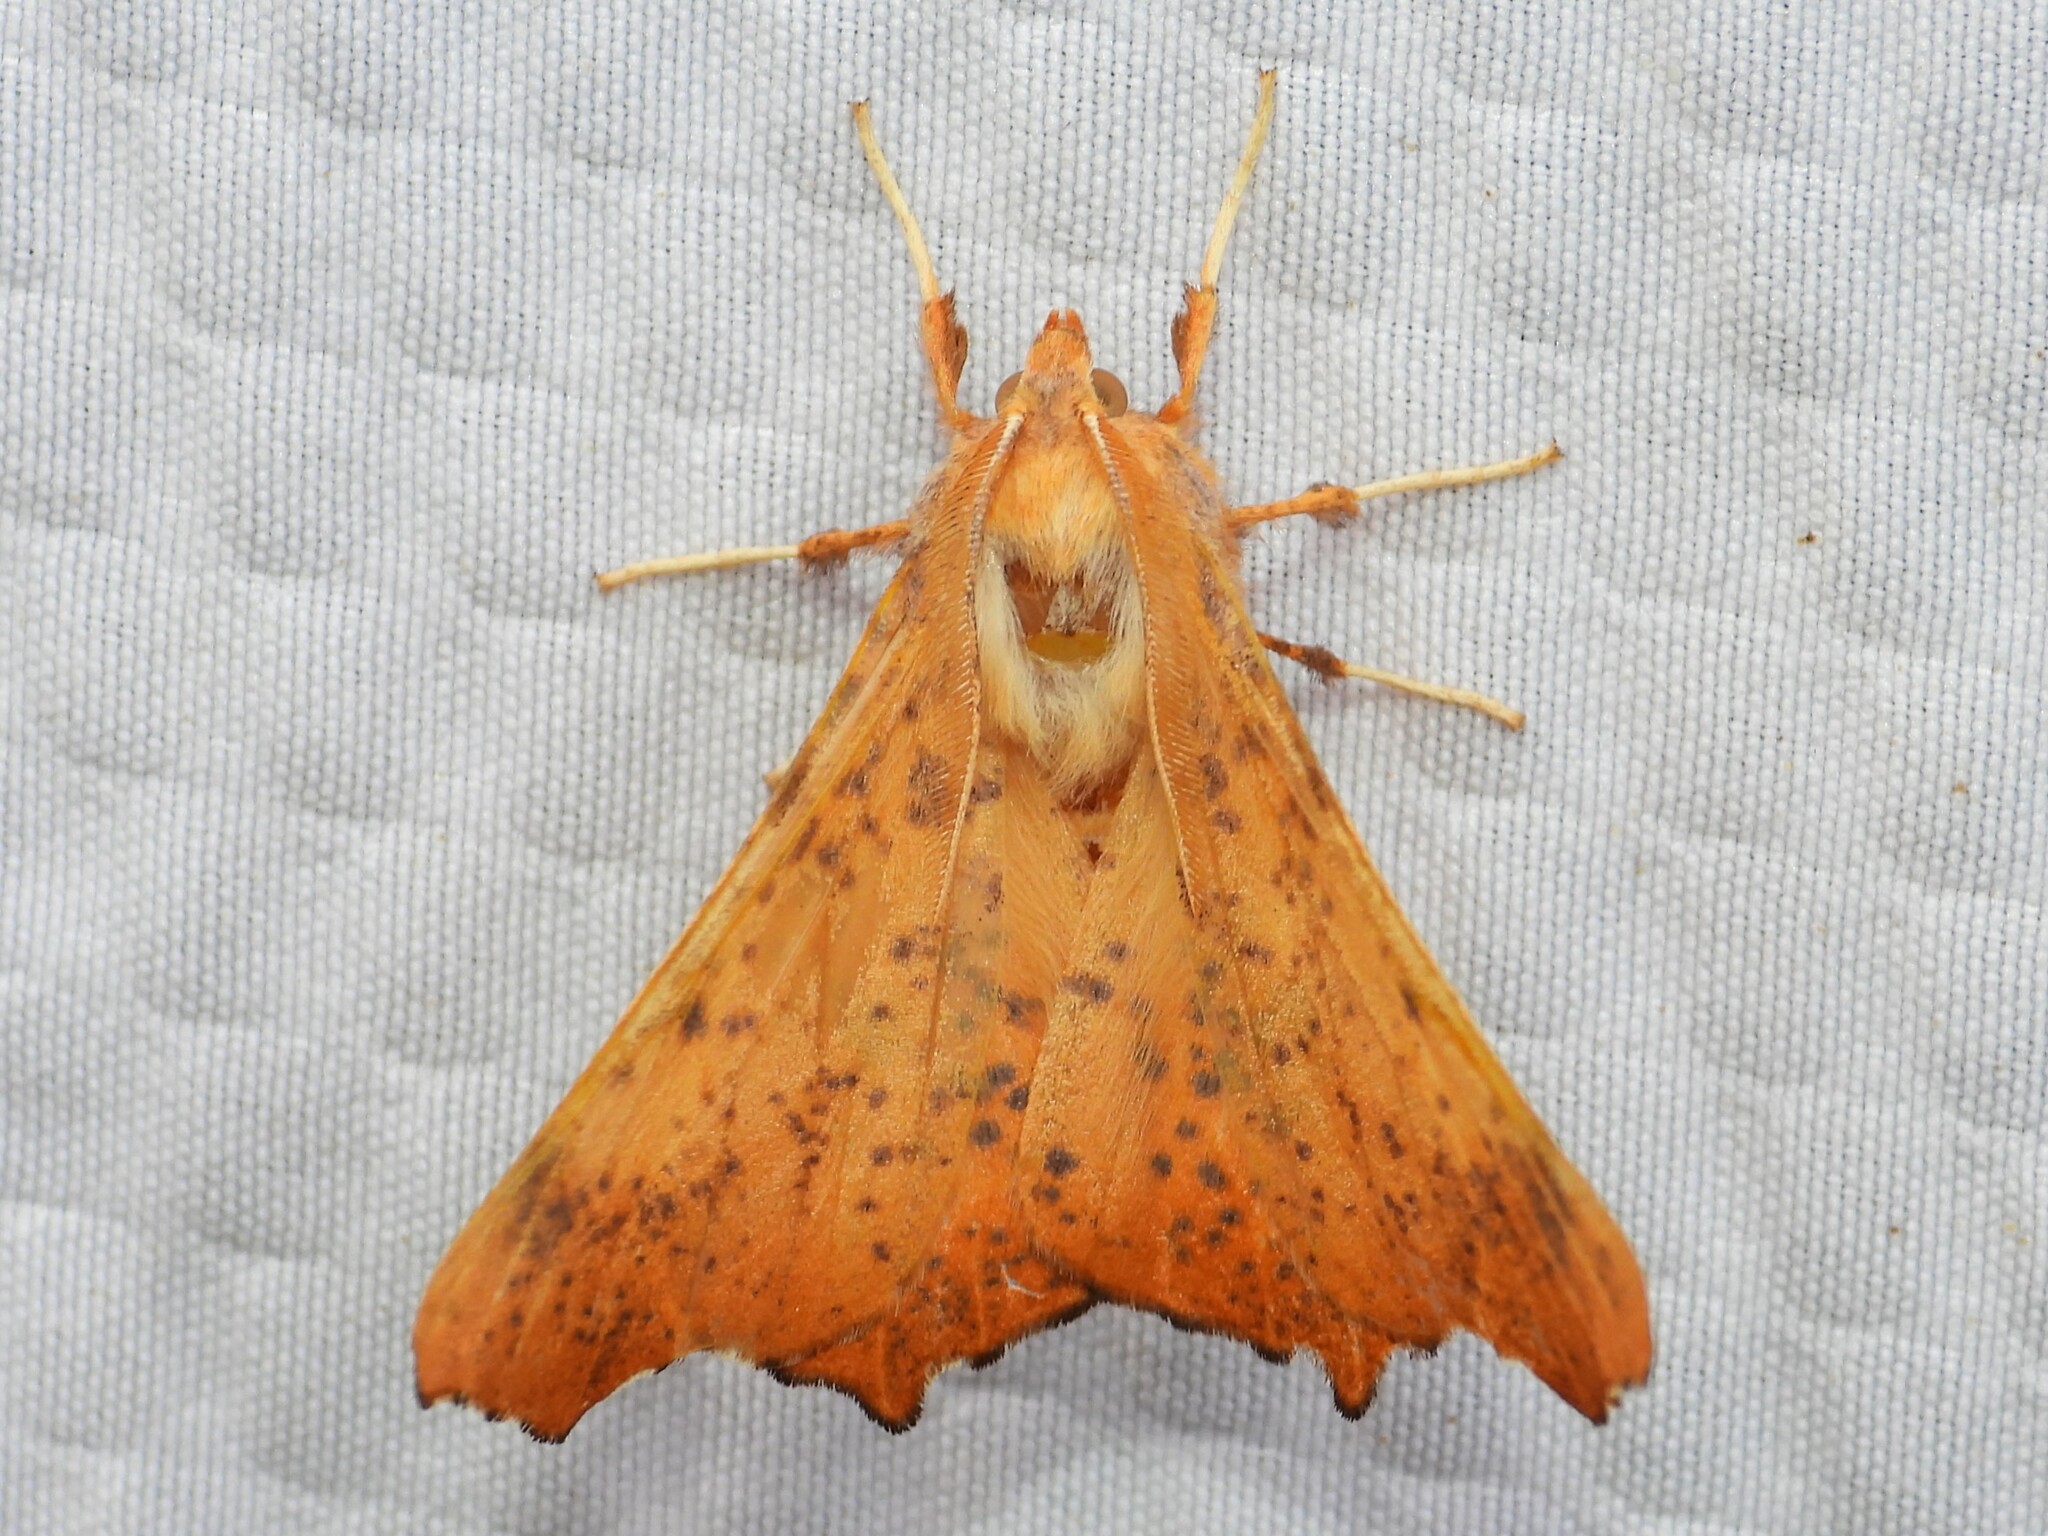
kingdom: Animalia
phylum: Arthropoda
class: Insecta
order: Lepidoptera
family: Geometridae
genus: Ennomos
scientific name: Ennomos magnaria
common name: Maple spanworm
